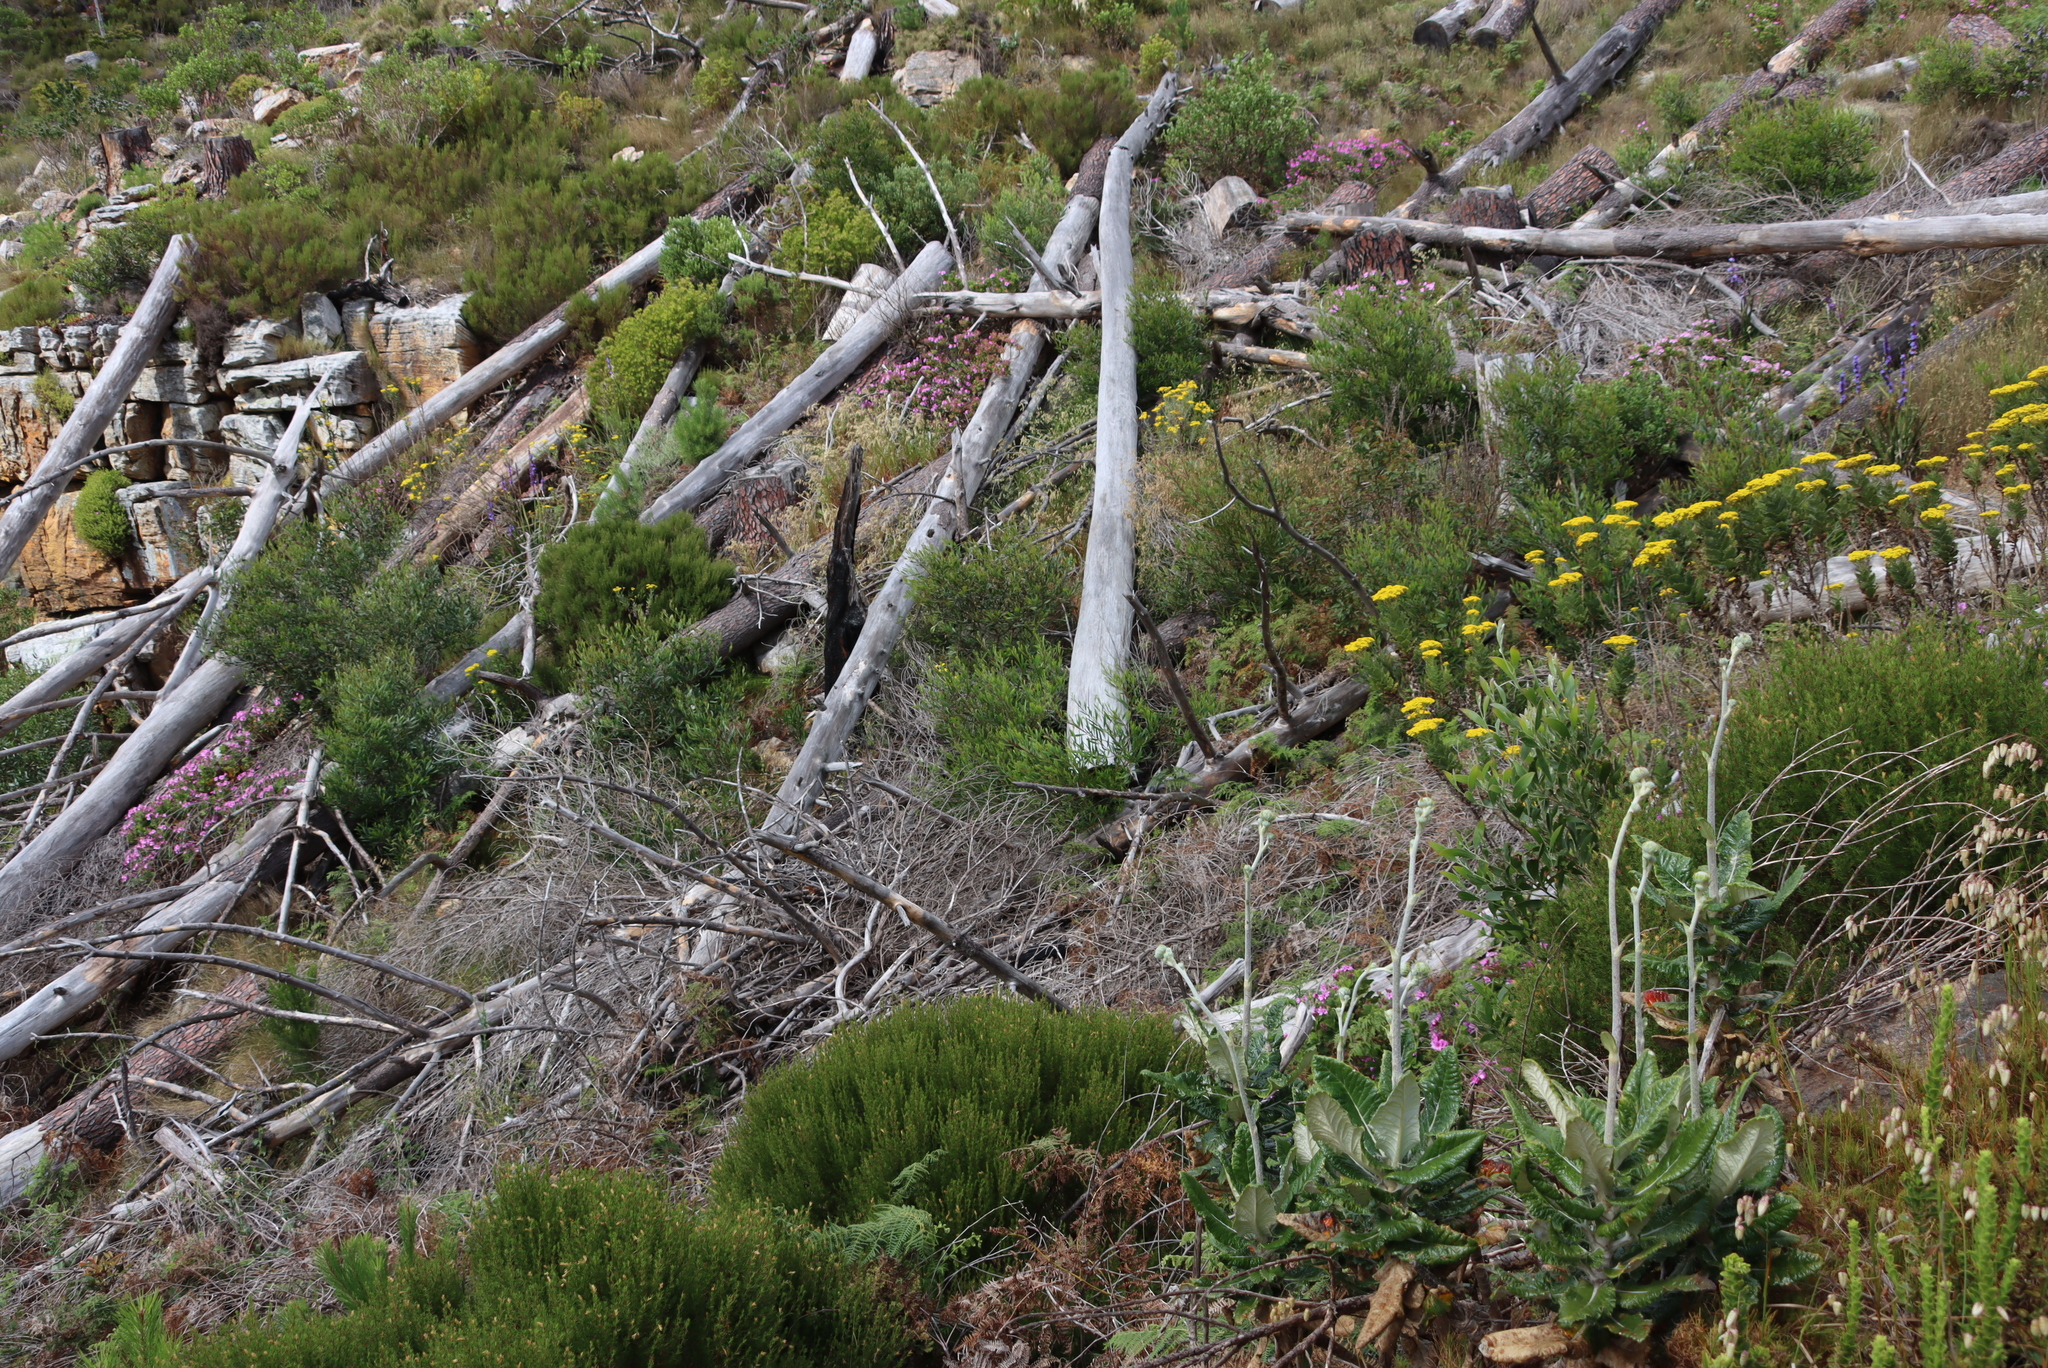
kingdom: Plantae
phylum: Tracheophyta
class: Magnoliopsida
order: Fabales
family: Fabaceae
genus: Acacia
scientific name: Acacia longifolia
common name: Sydney golden wattle
